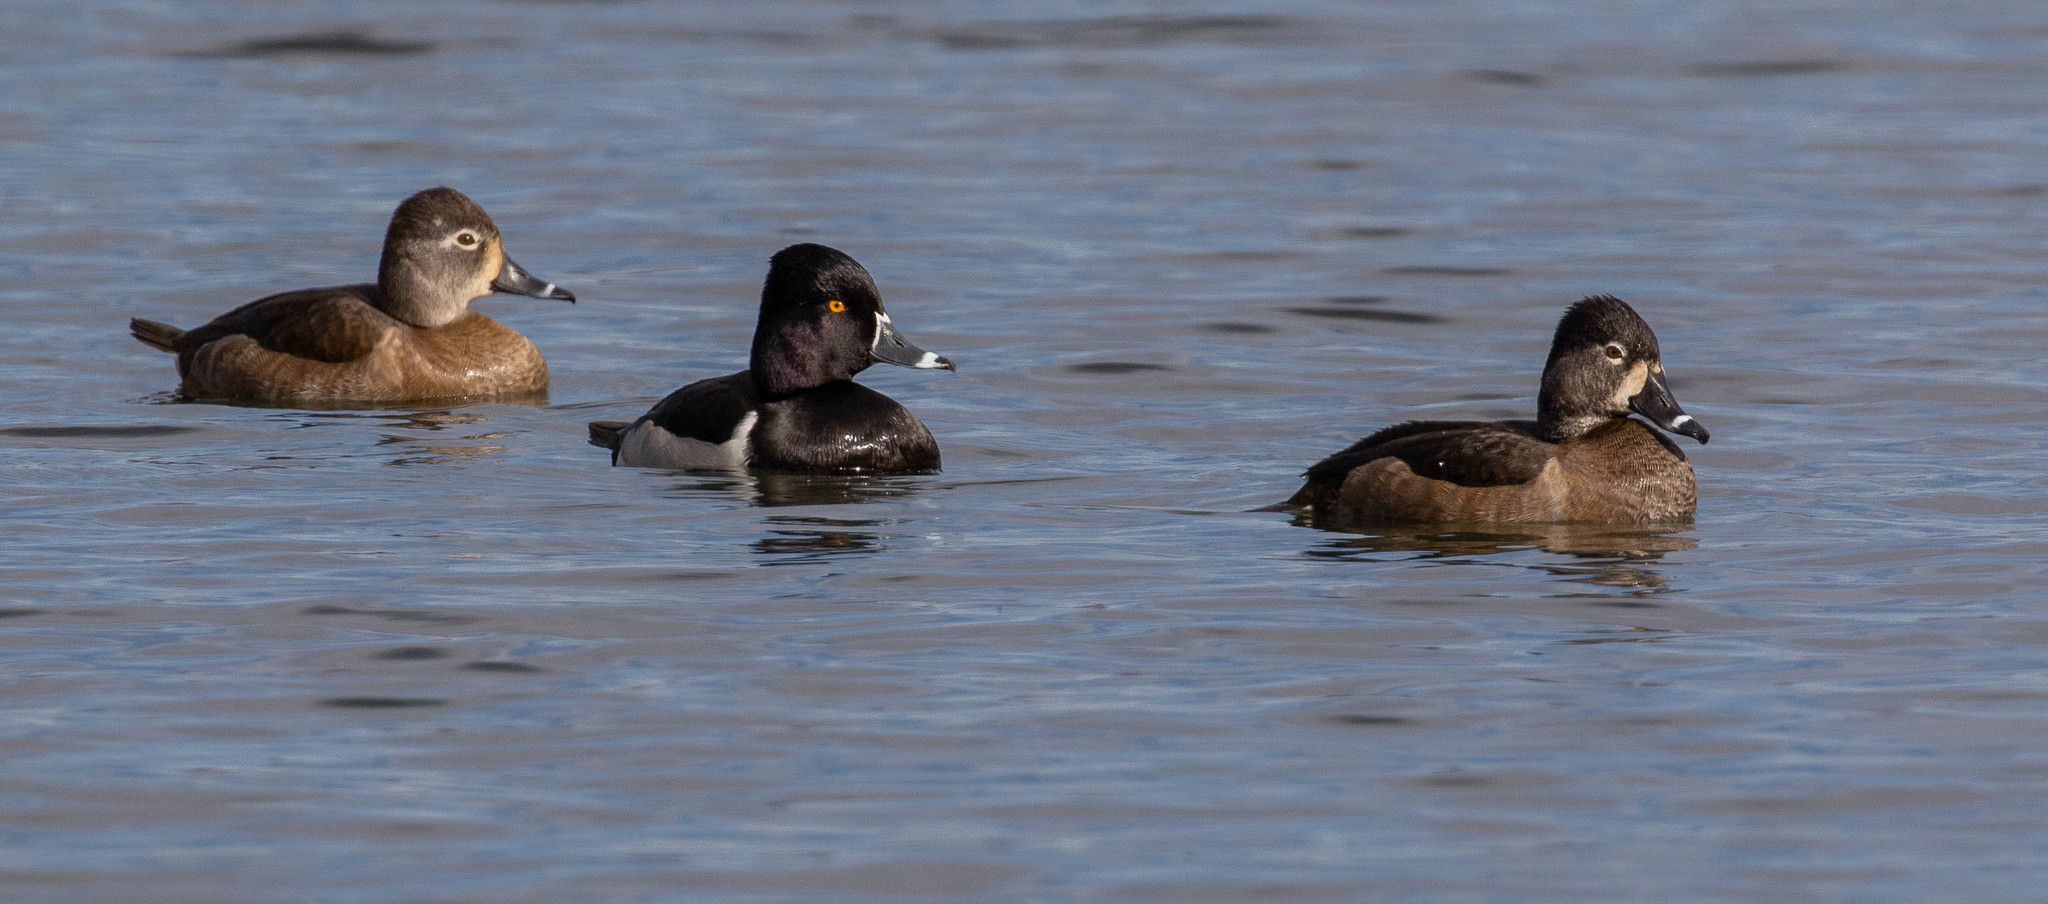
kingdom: Animalia
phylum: Chordata
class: Aves
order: Anseriformes
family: Anatidae
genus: Aythya
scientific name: Aythya collaris
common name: Ring-necked duck
